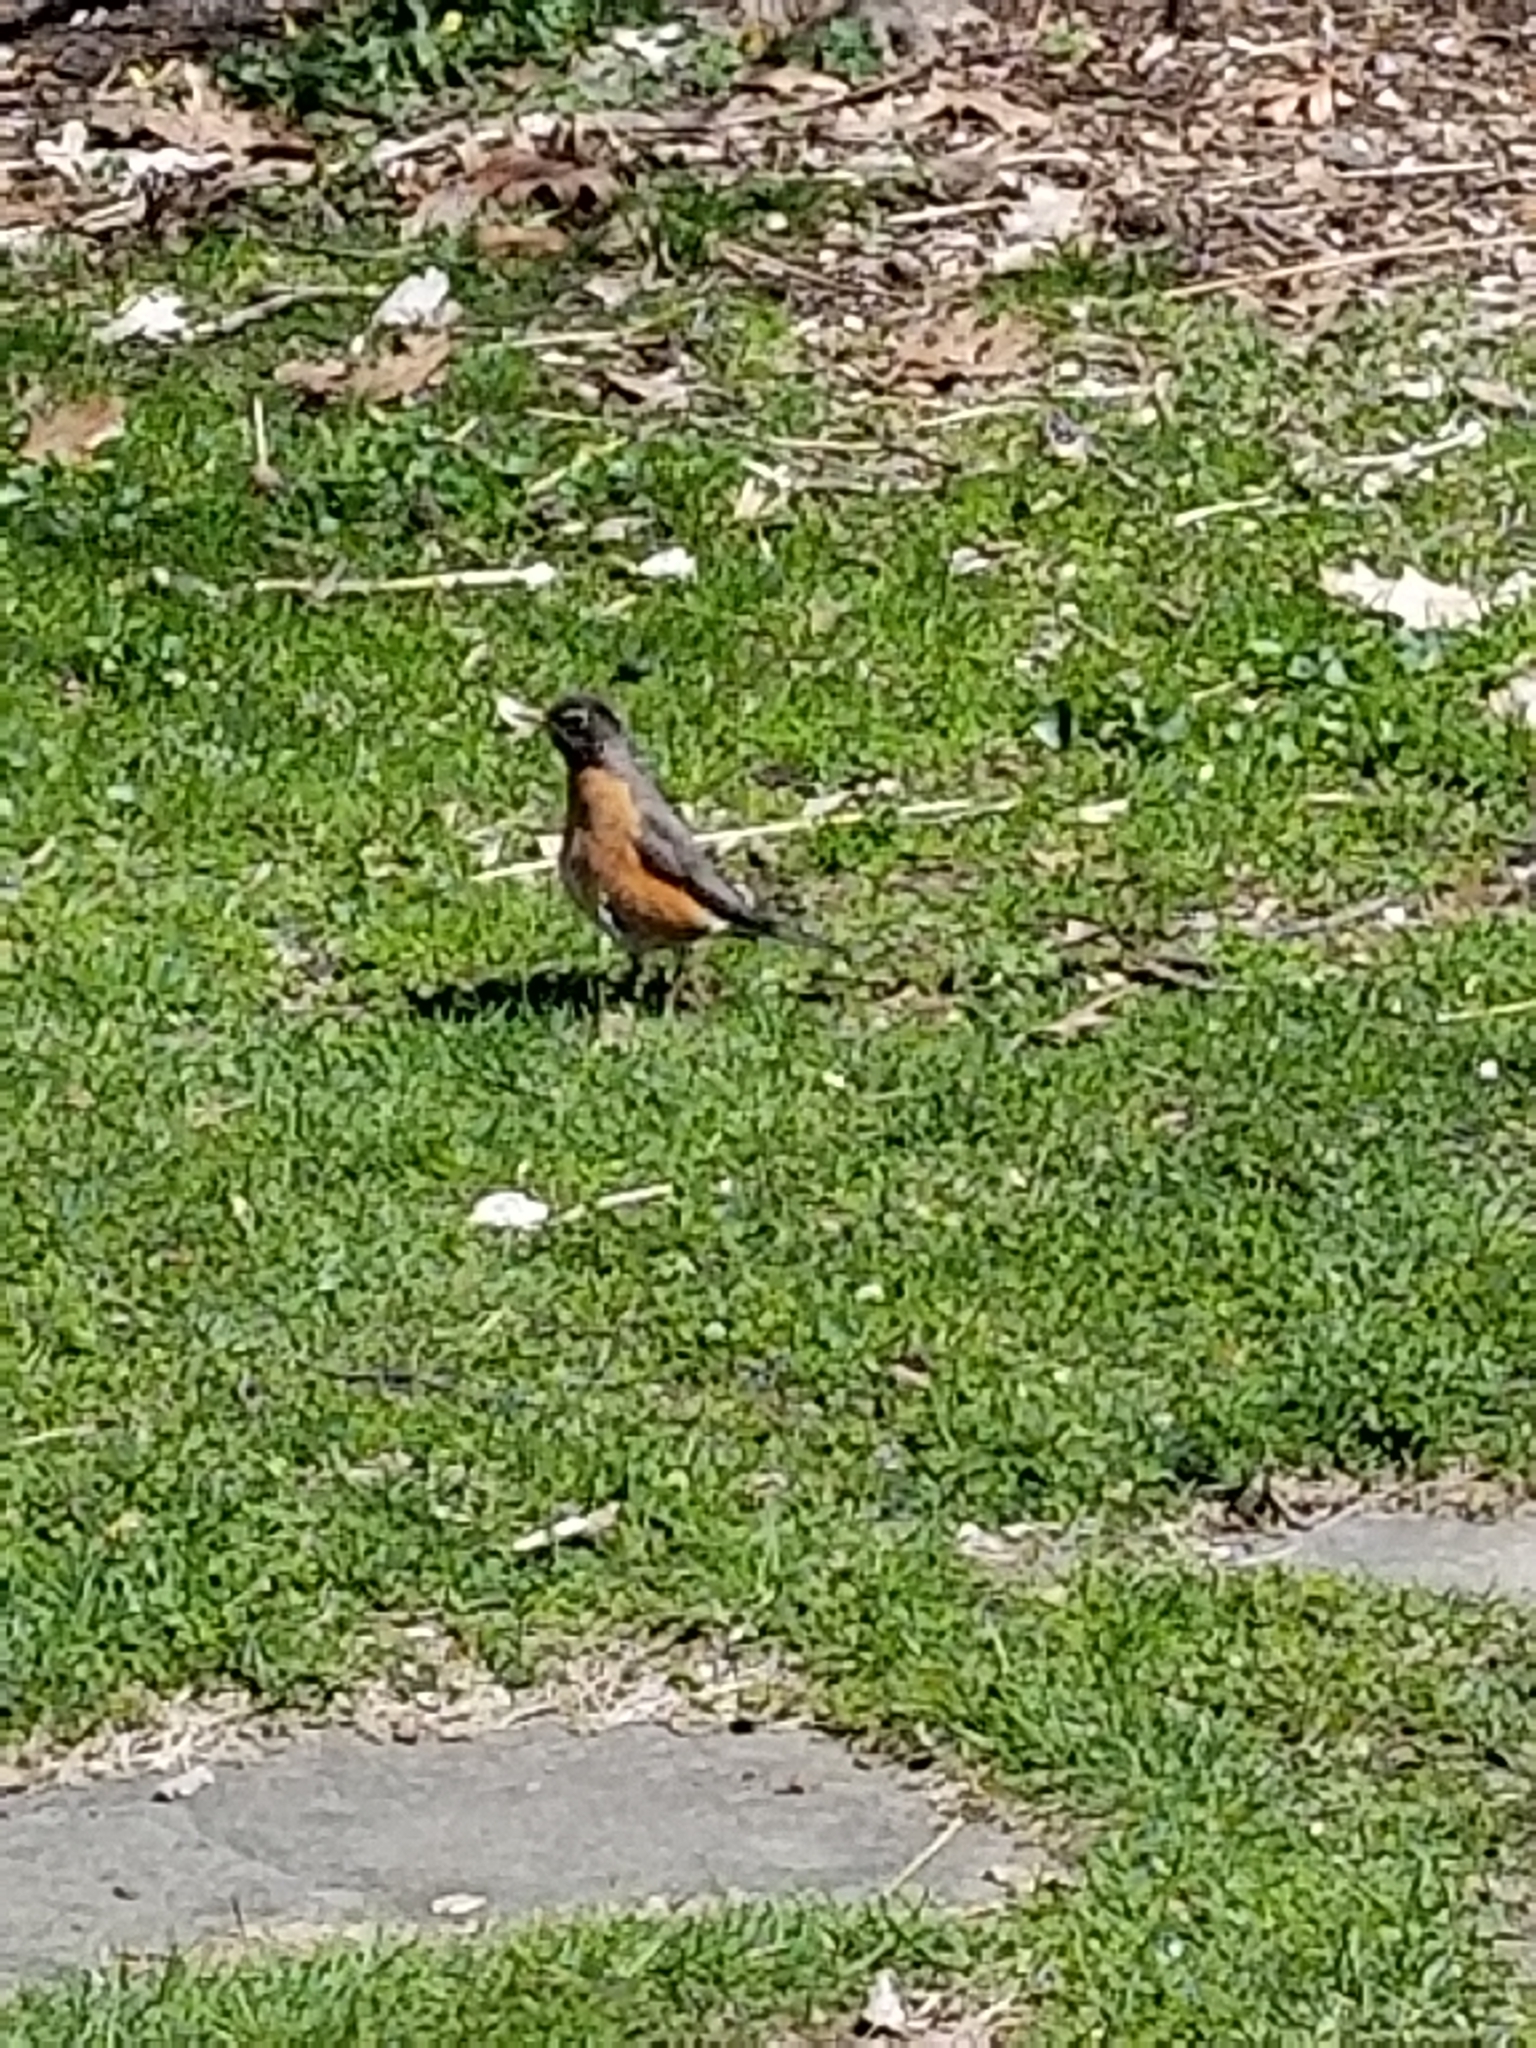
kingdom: Animalia
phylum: Chordata
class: Aves
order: Passeriformes
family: Turdidae
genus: Turdus
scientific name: Turdus migratorius
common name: American robin
